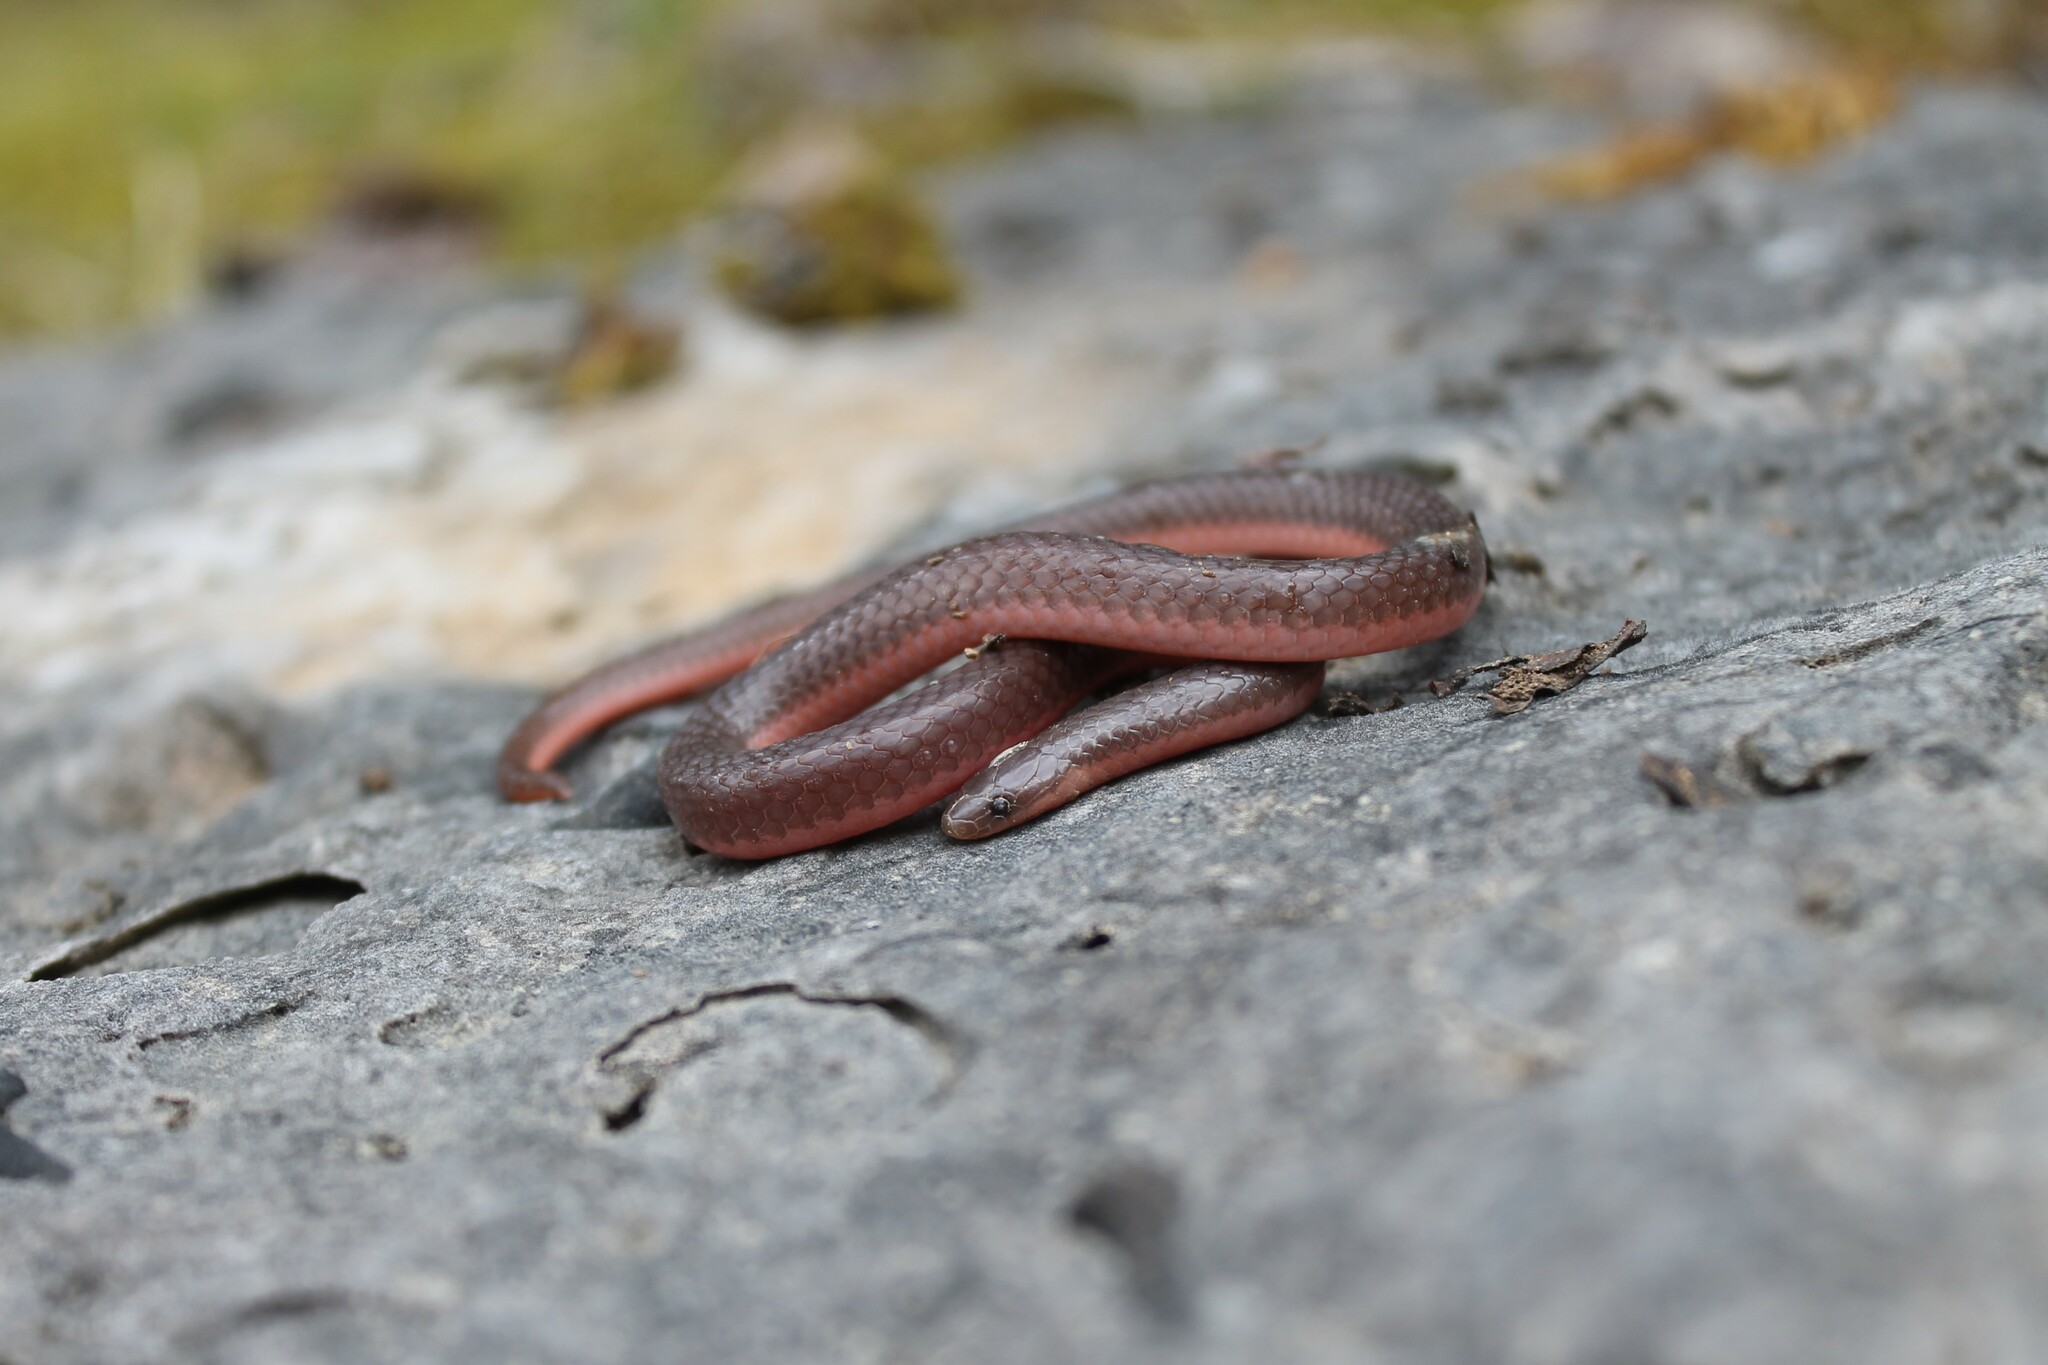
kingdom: Animalia
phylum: Chordata
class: Squamata
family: Colubridae
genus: Carphophis
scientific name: Carphophis amoenus
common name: Eastern worm snake
